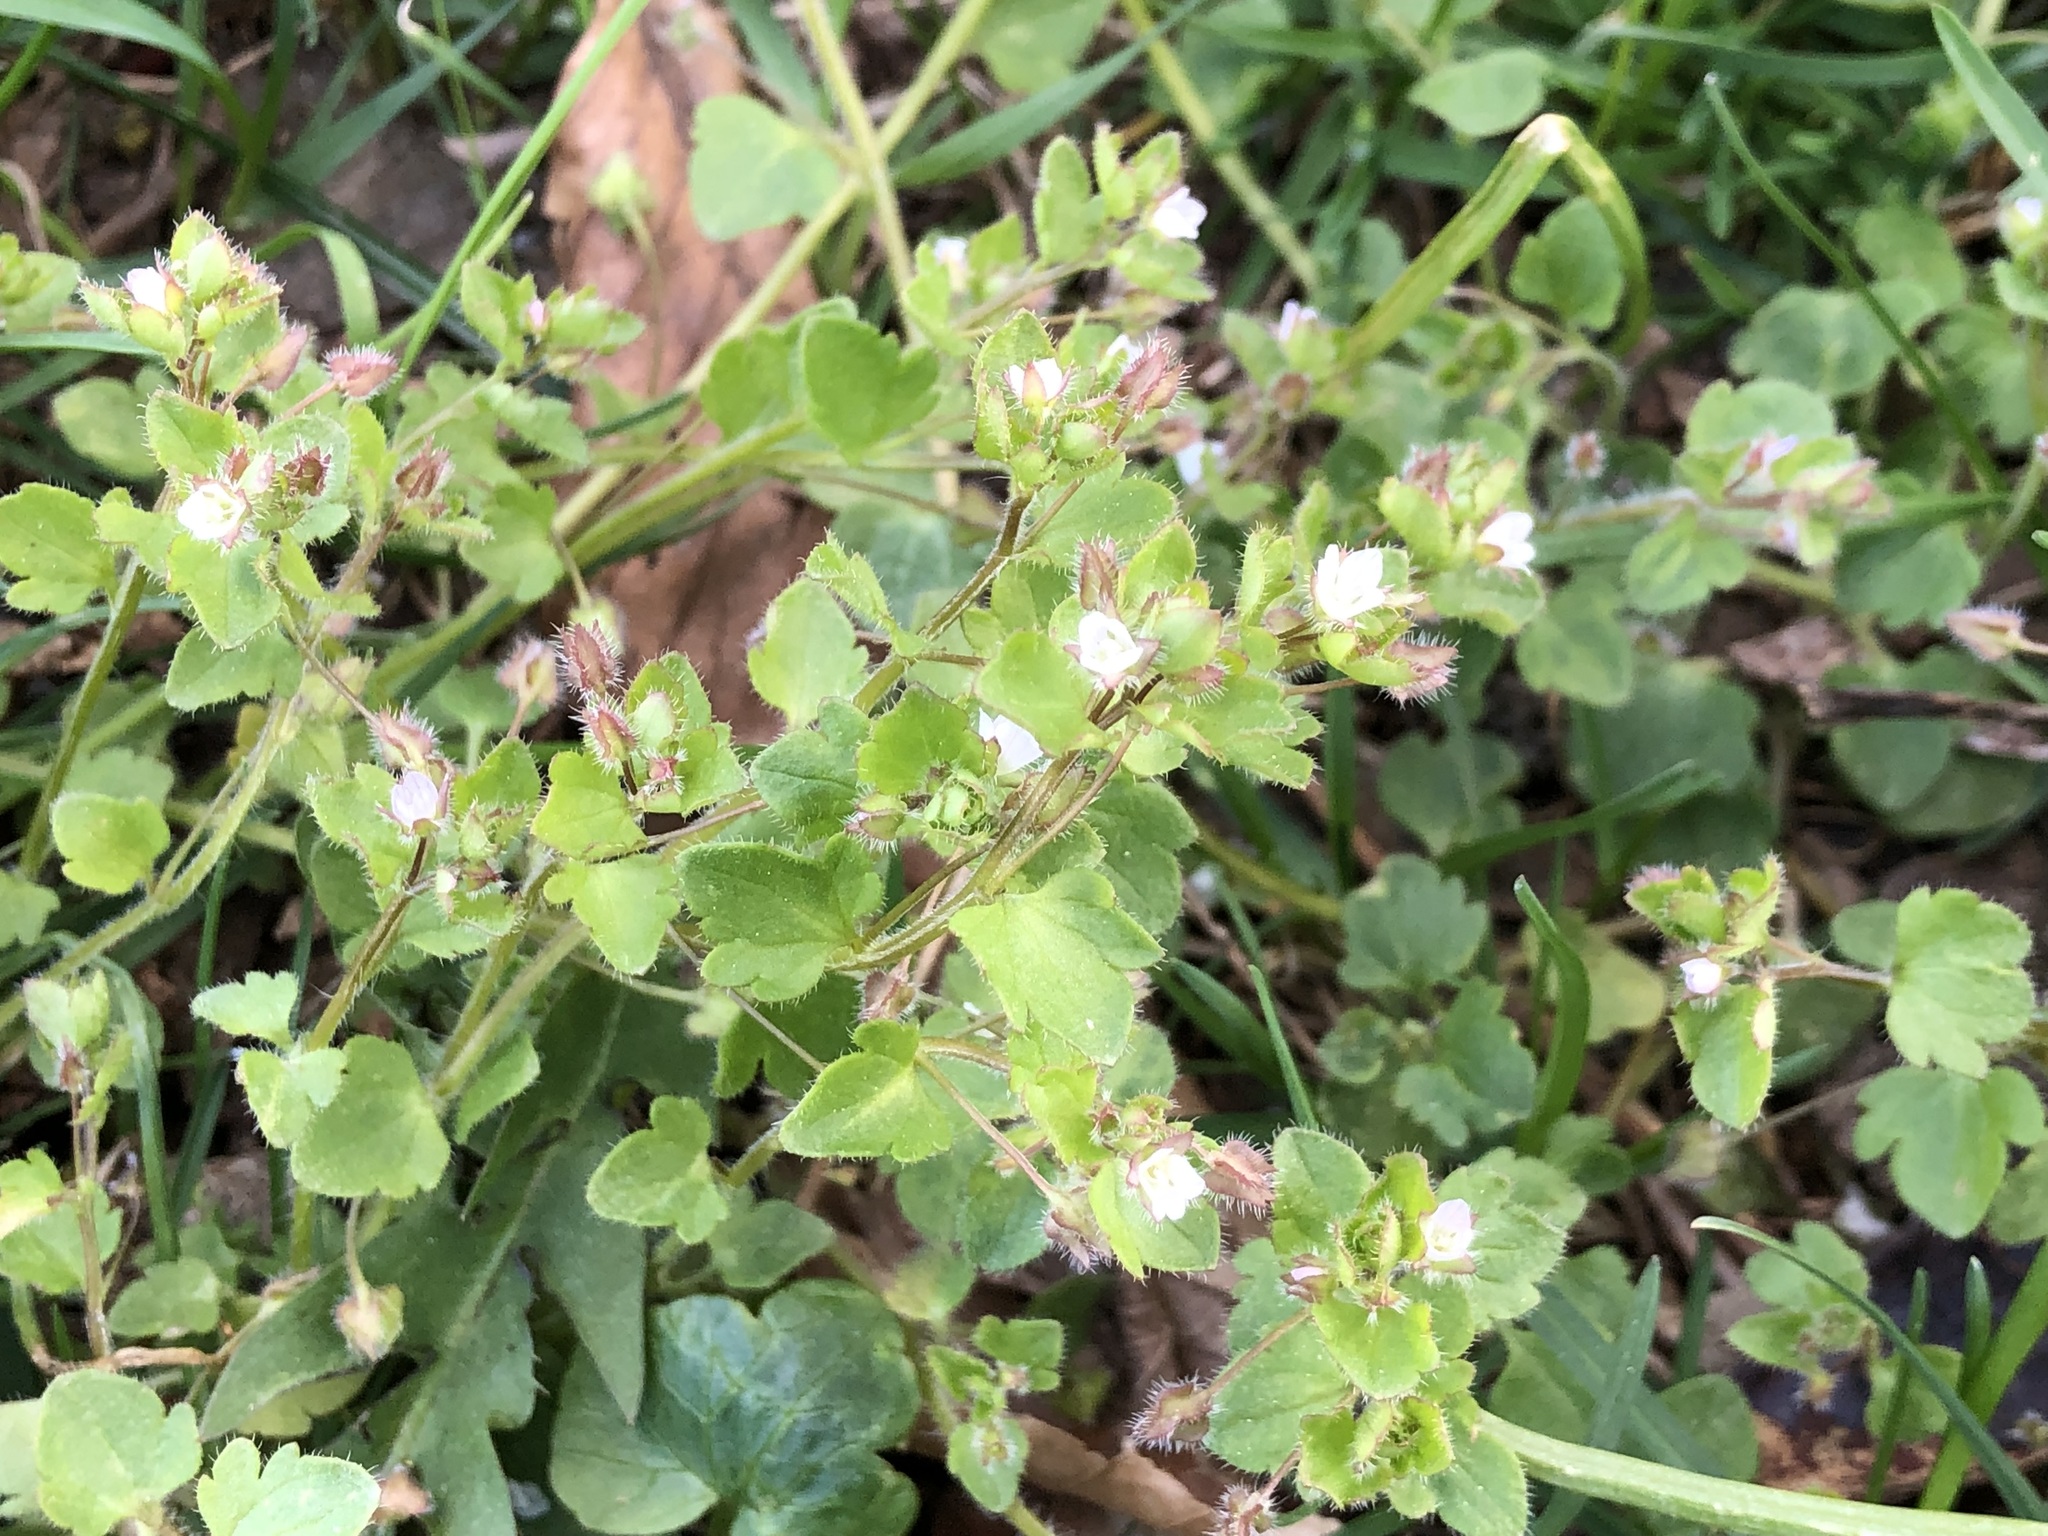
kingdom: Plantae
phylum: Tracheophyta
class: Magnoliopsida
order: Lamiales
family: Plantaginaceae
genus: Veronica
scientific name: Veronica sublobata
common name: False ivy-leaved speedwell
